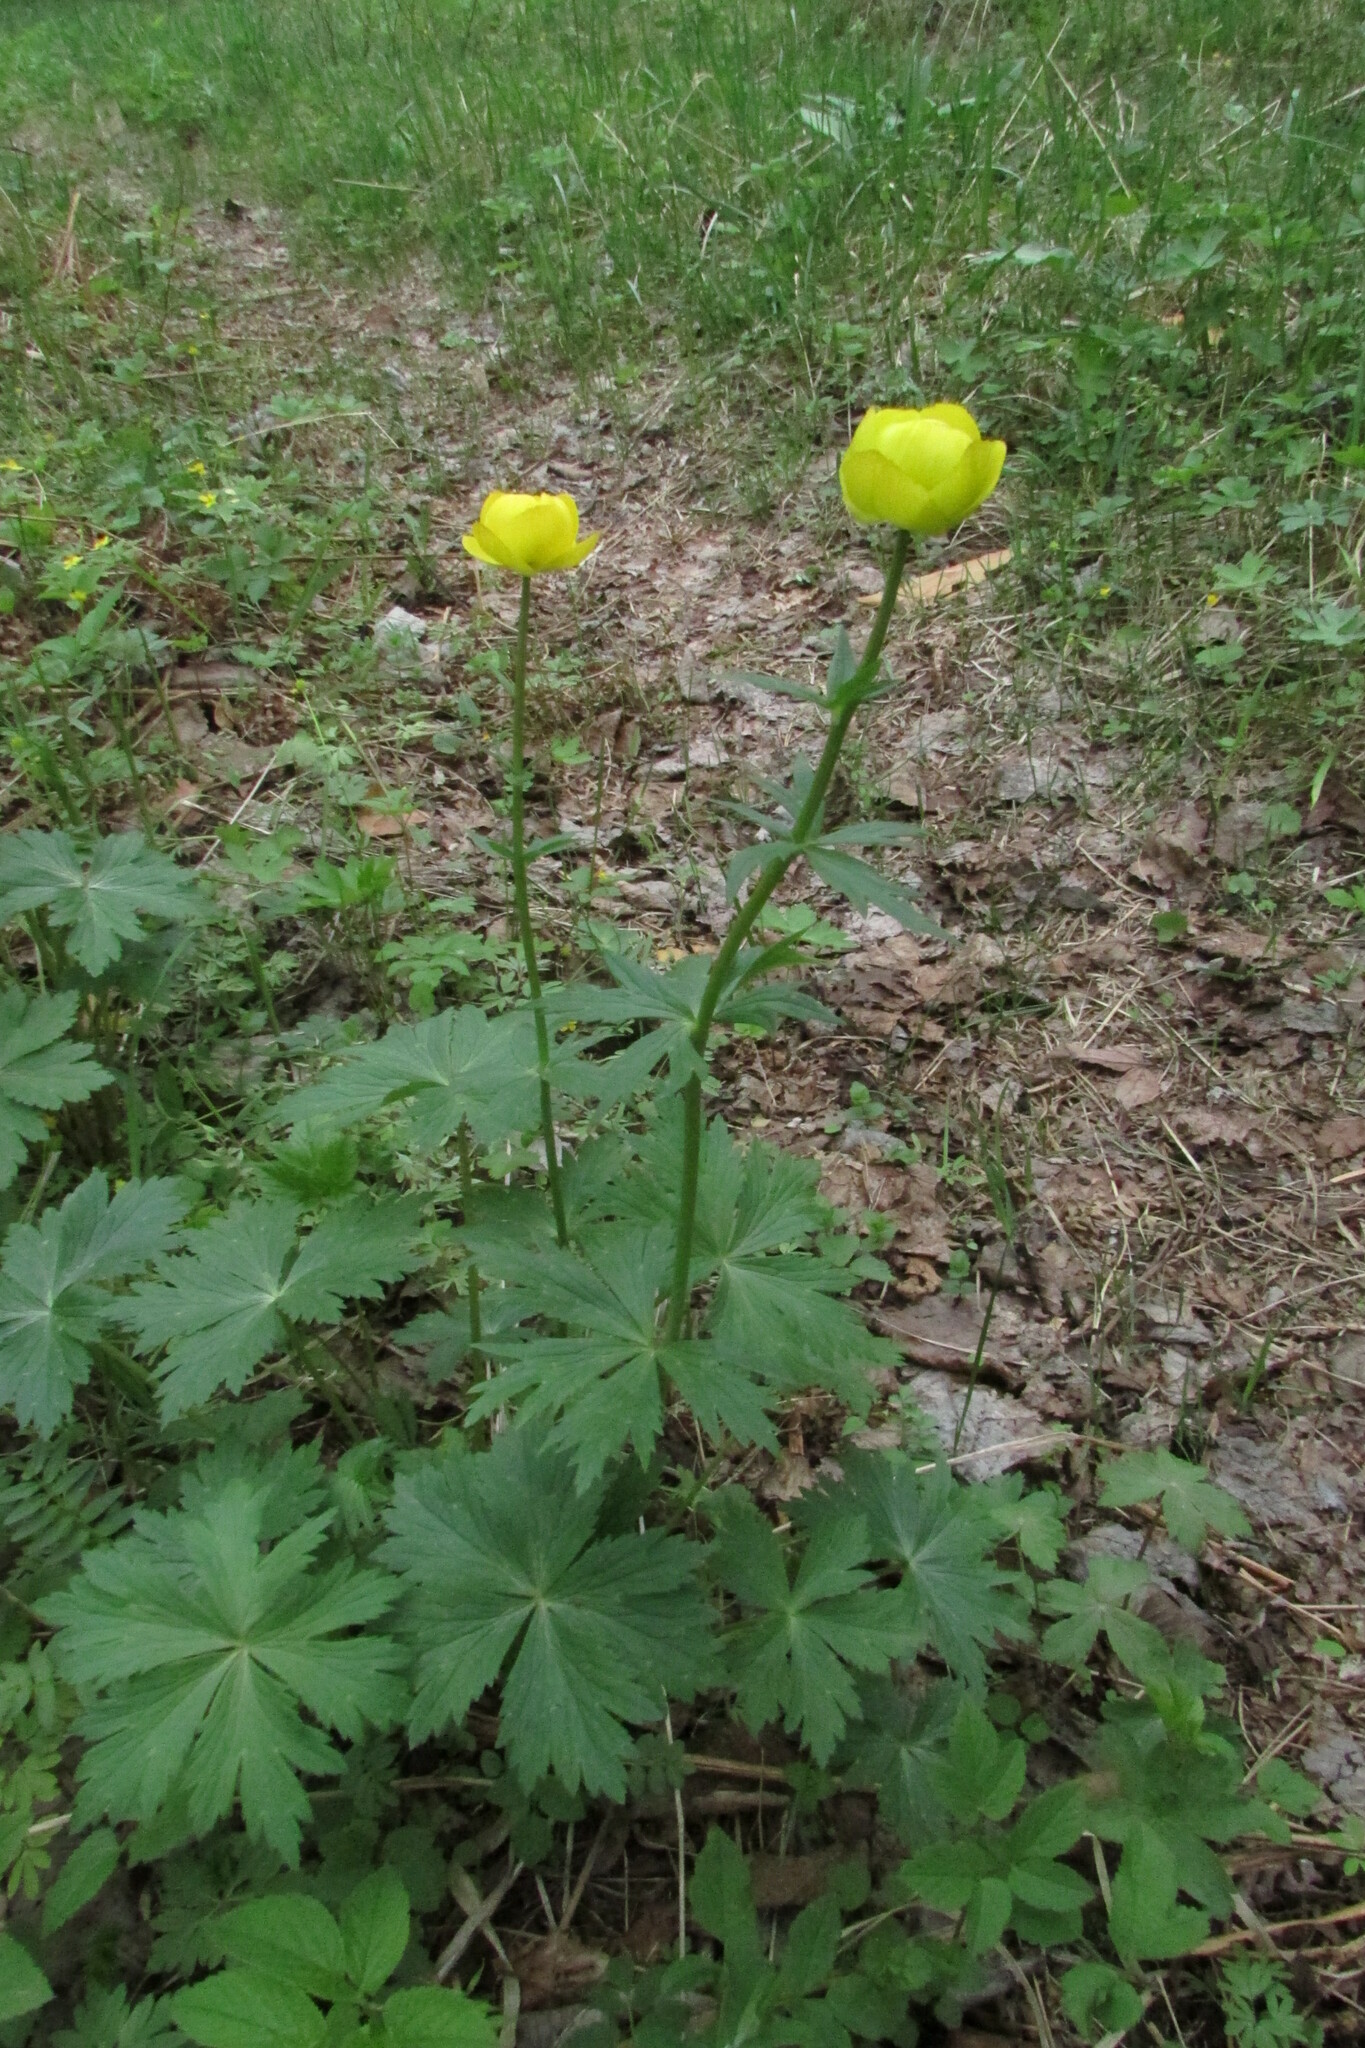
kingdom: Plantae
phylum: Tracheophyta
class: Magnoliopsida
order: Ranunculales
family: Ranunculaceae
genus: Trollius
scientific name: Trollius europaeus
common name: European globeflower
